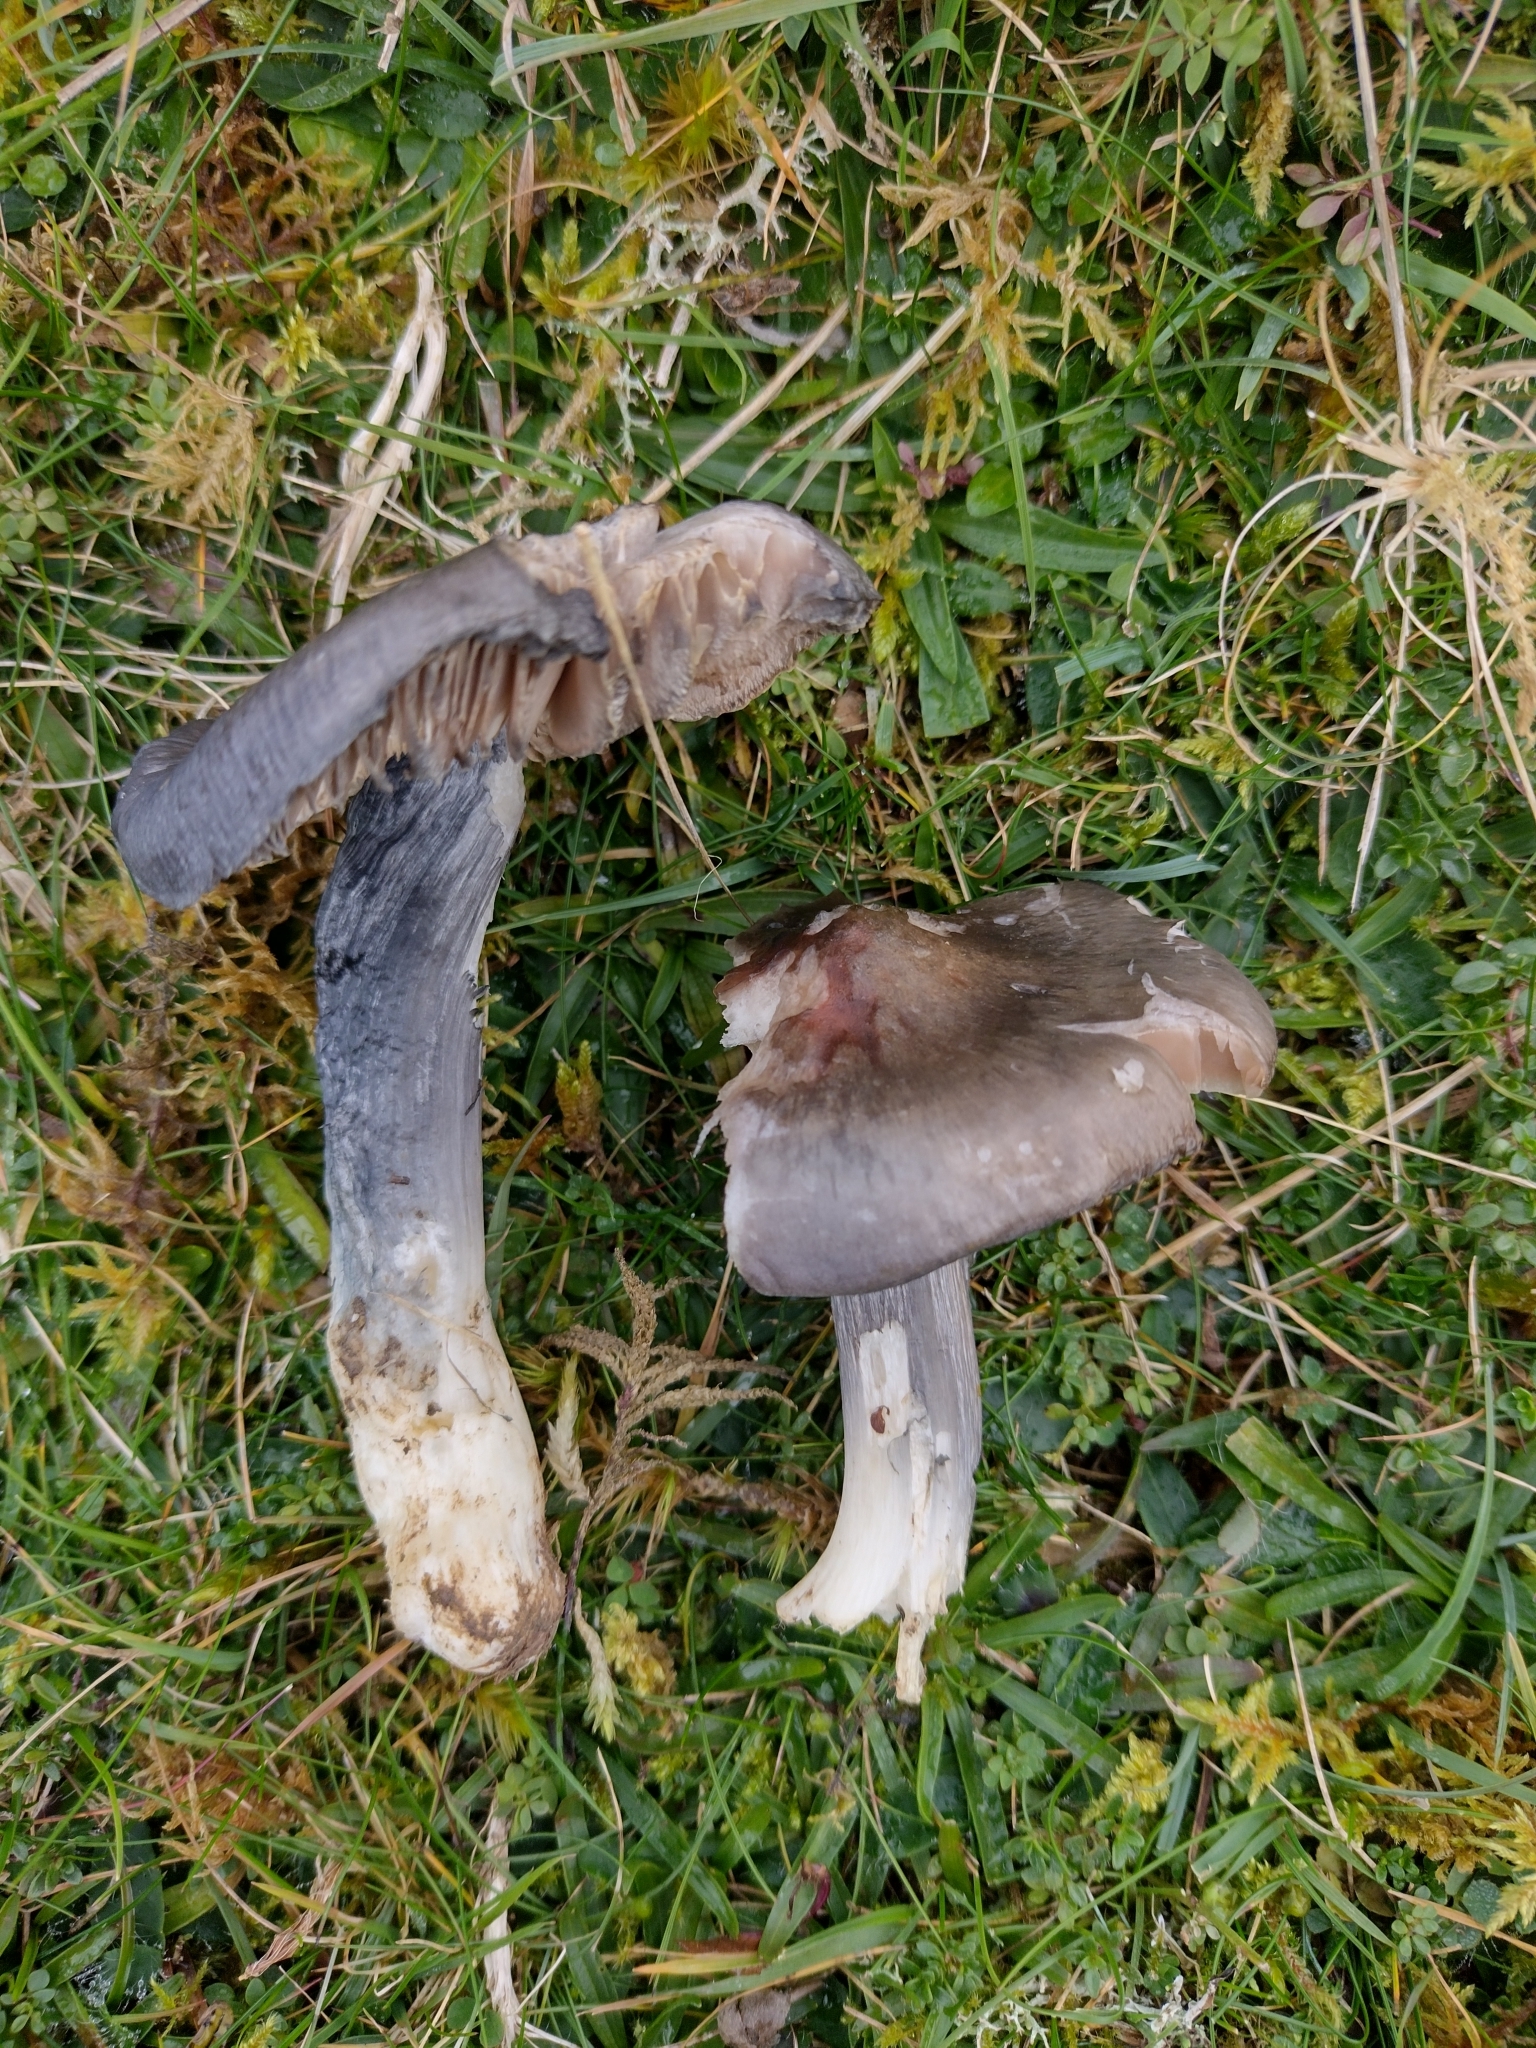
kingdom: Fungi
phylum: Basidiomycota
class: Agaricomycetes
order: Agaricales
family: Entolomataceae
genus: Entoloma
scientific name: Entoloma atromadidum
